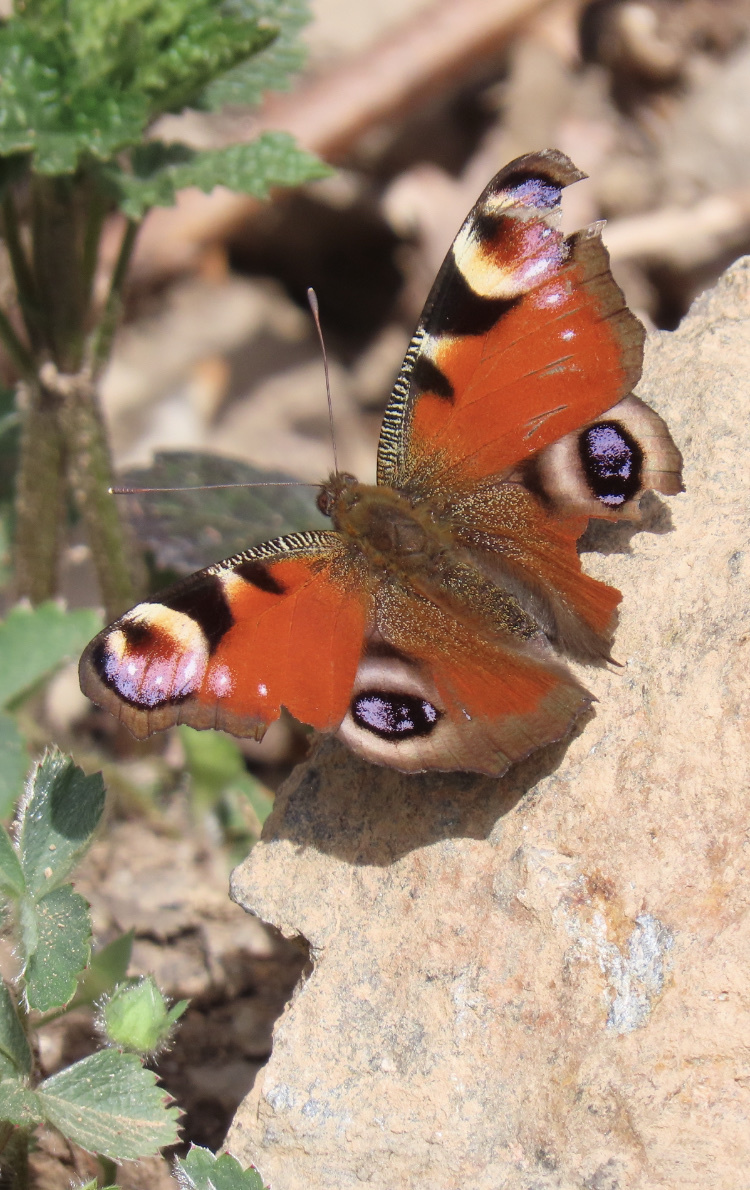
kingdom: Animalia
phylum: Arthropoda
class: Insecta
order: Lepidoptera
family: Nymphalidae
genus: Aglais
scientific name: Aglais io
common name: Peacock
